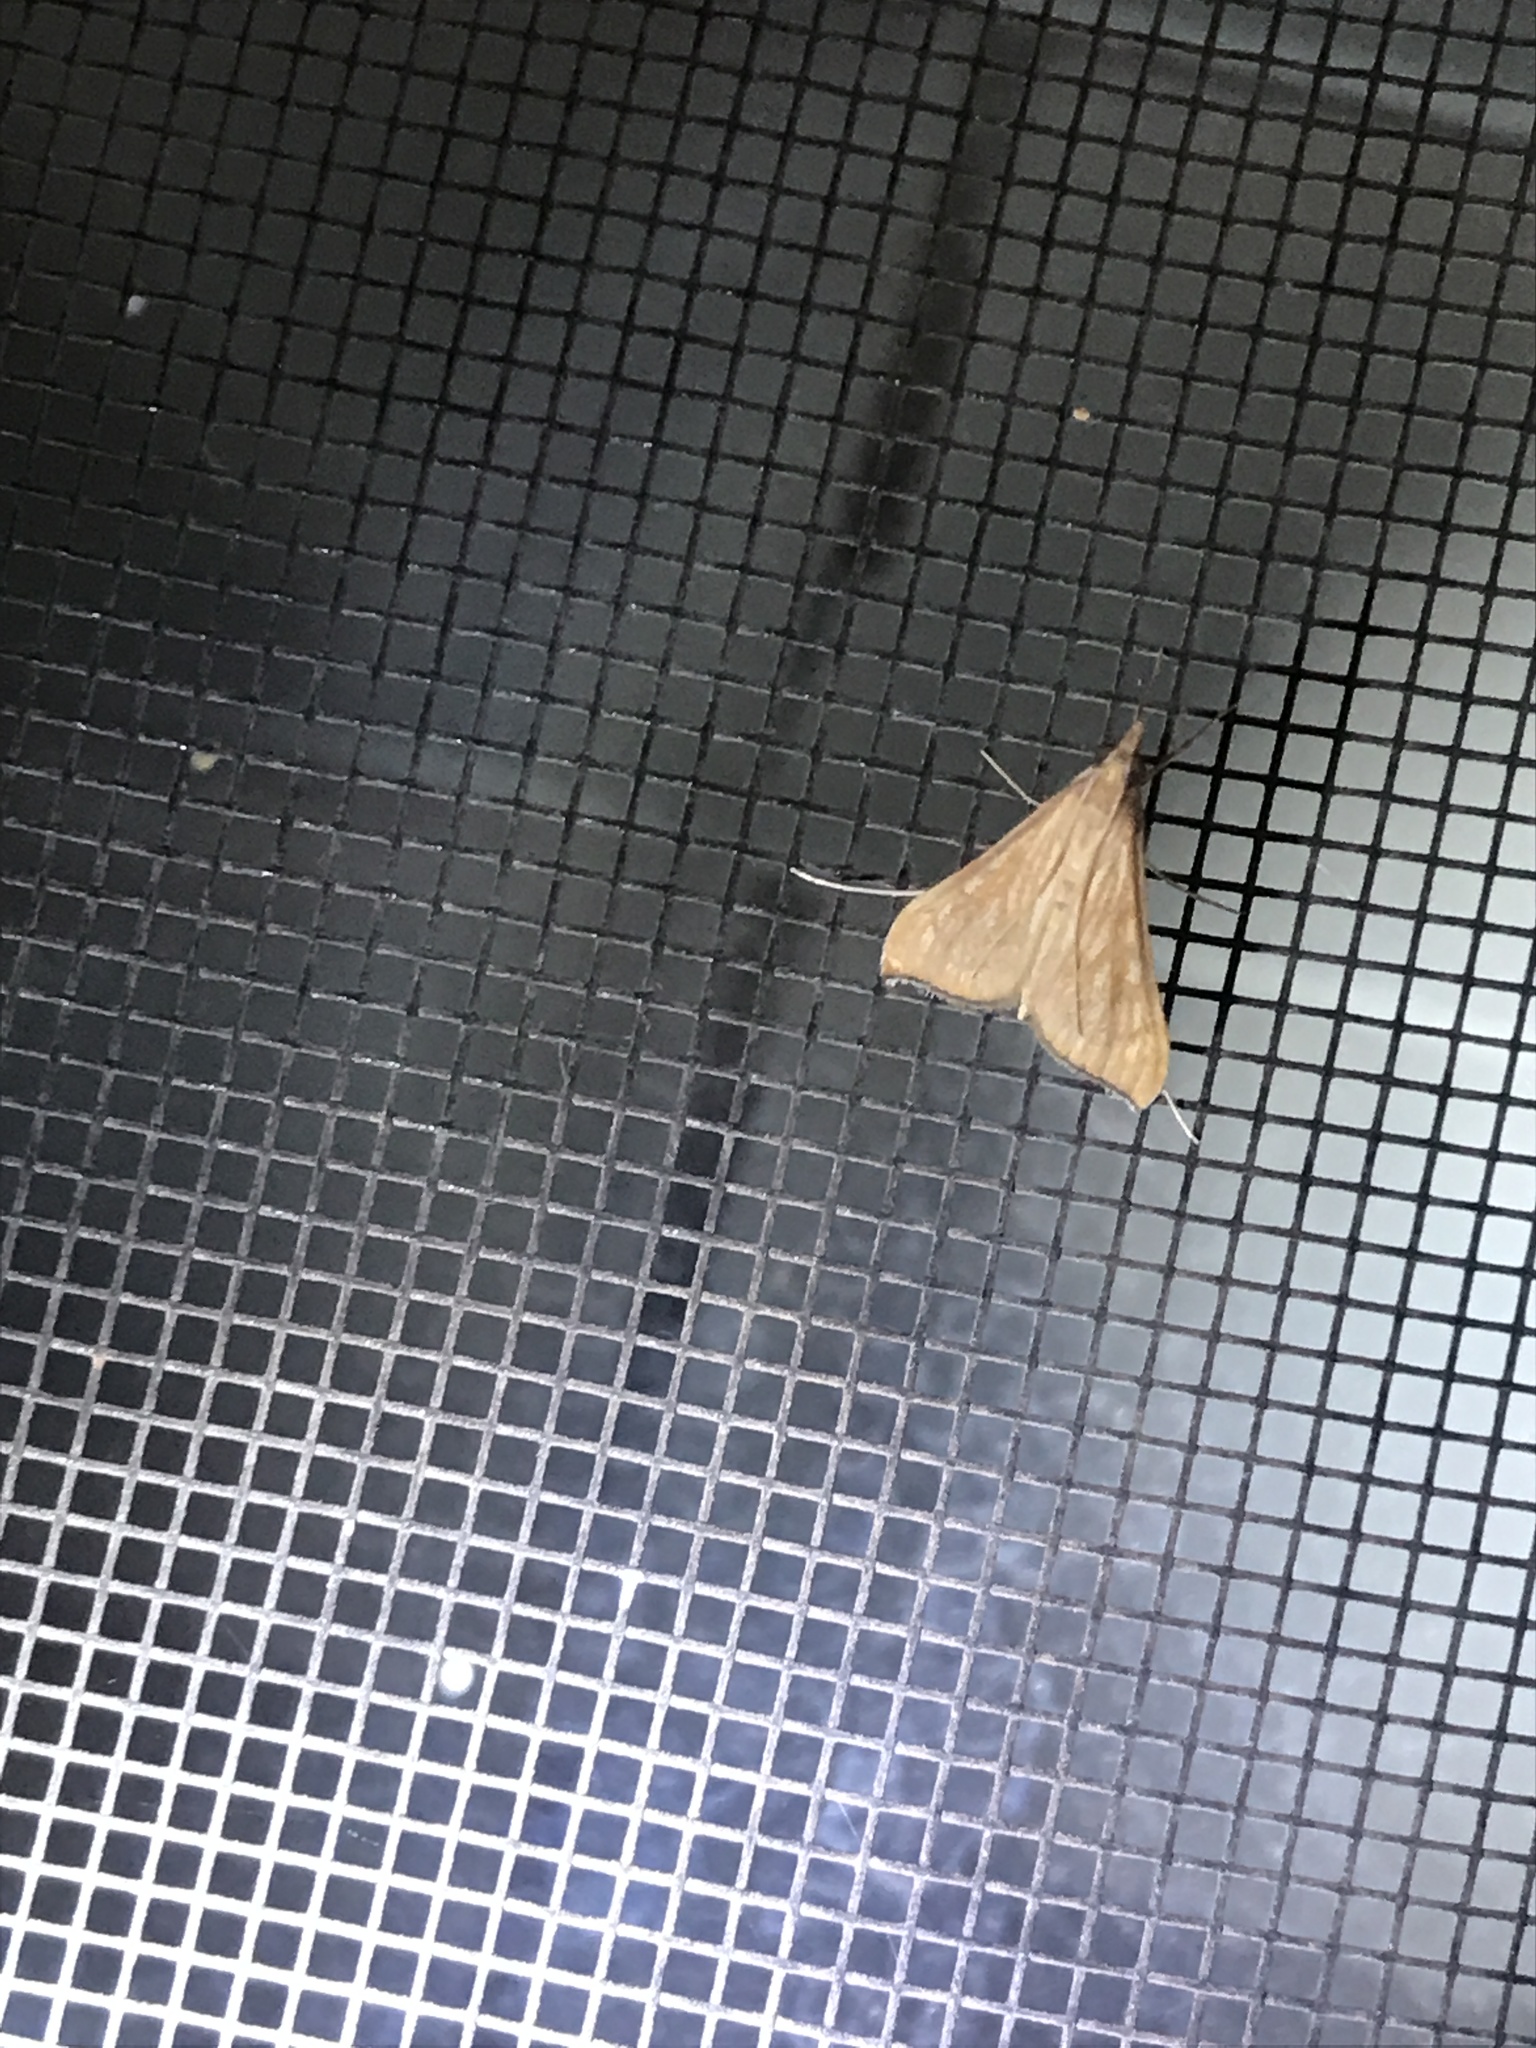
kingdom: Animalia
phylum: Arthropoda
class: Insecta
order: Lepidoptera
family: Crambidae
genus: Antigastra
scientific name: Antigastra catalaunalis
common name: Spanish dot
